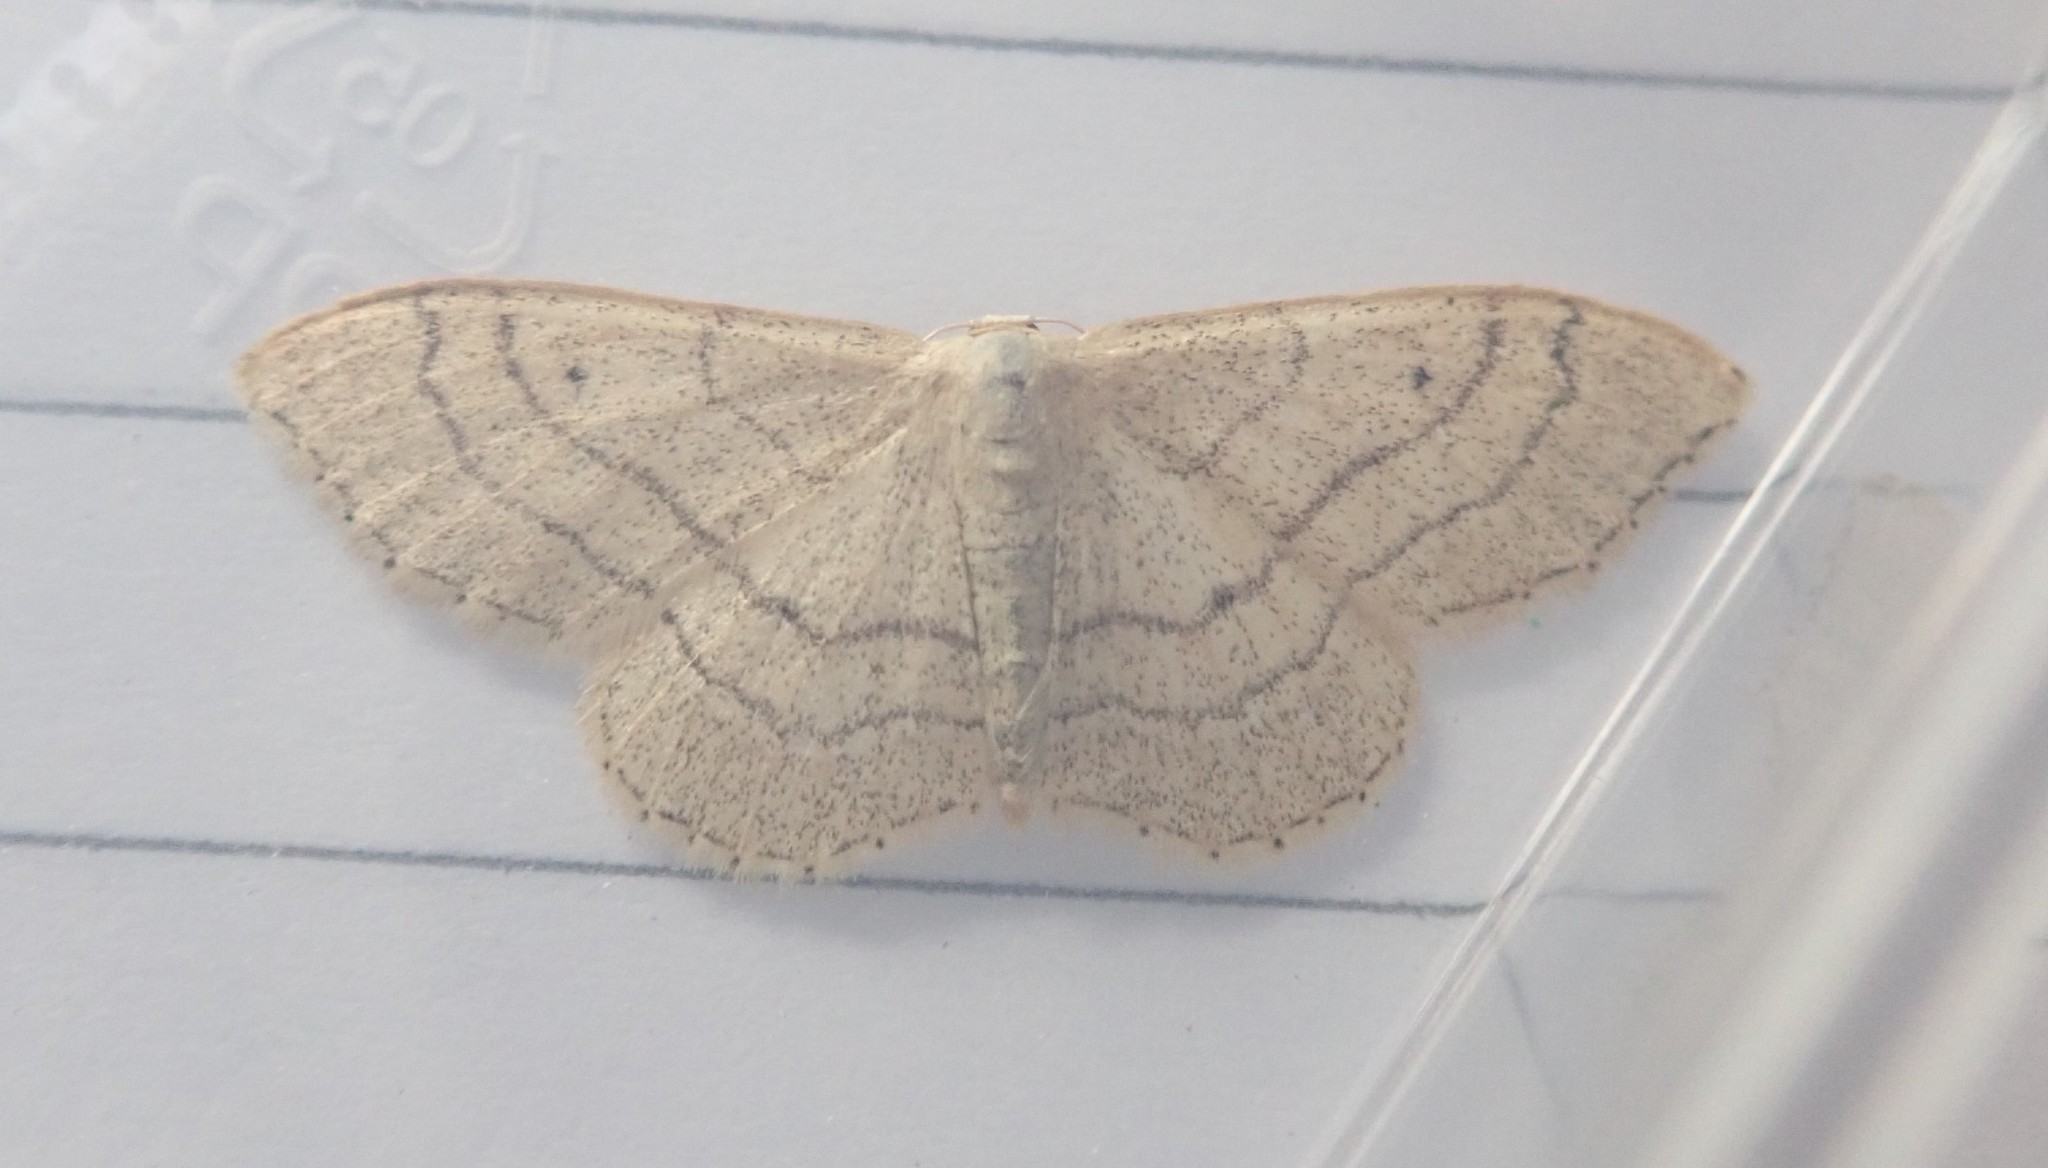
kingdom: Animalia
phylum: Arthropoda
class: Insecta
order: Lepidoptera
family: Geometridae
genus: Idaea
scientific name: Idaea aversata
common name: Riband wave
